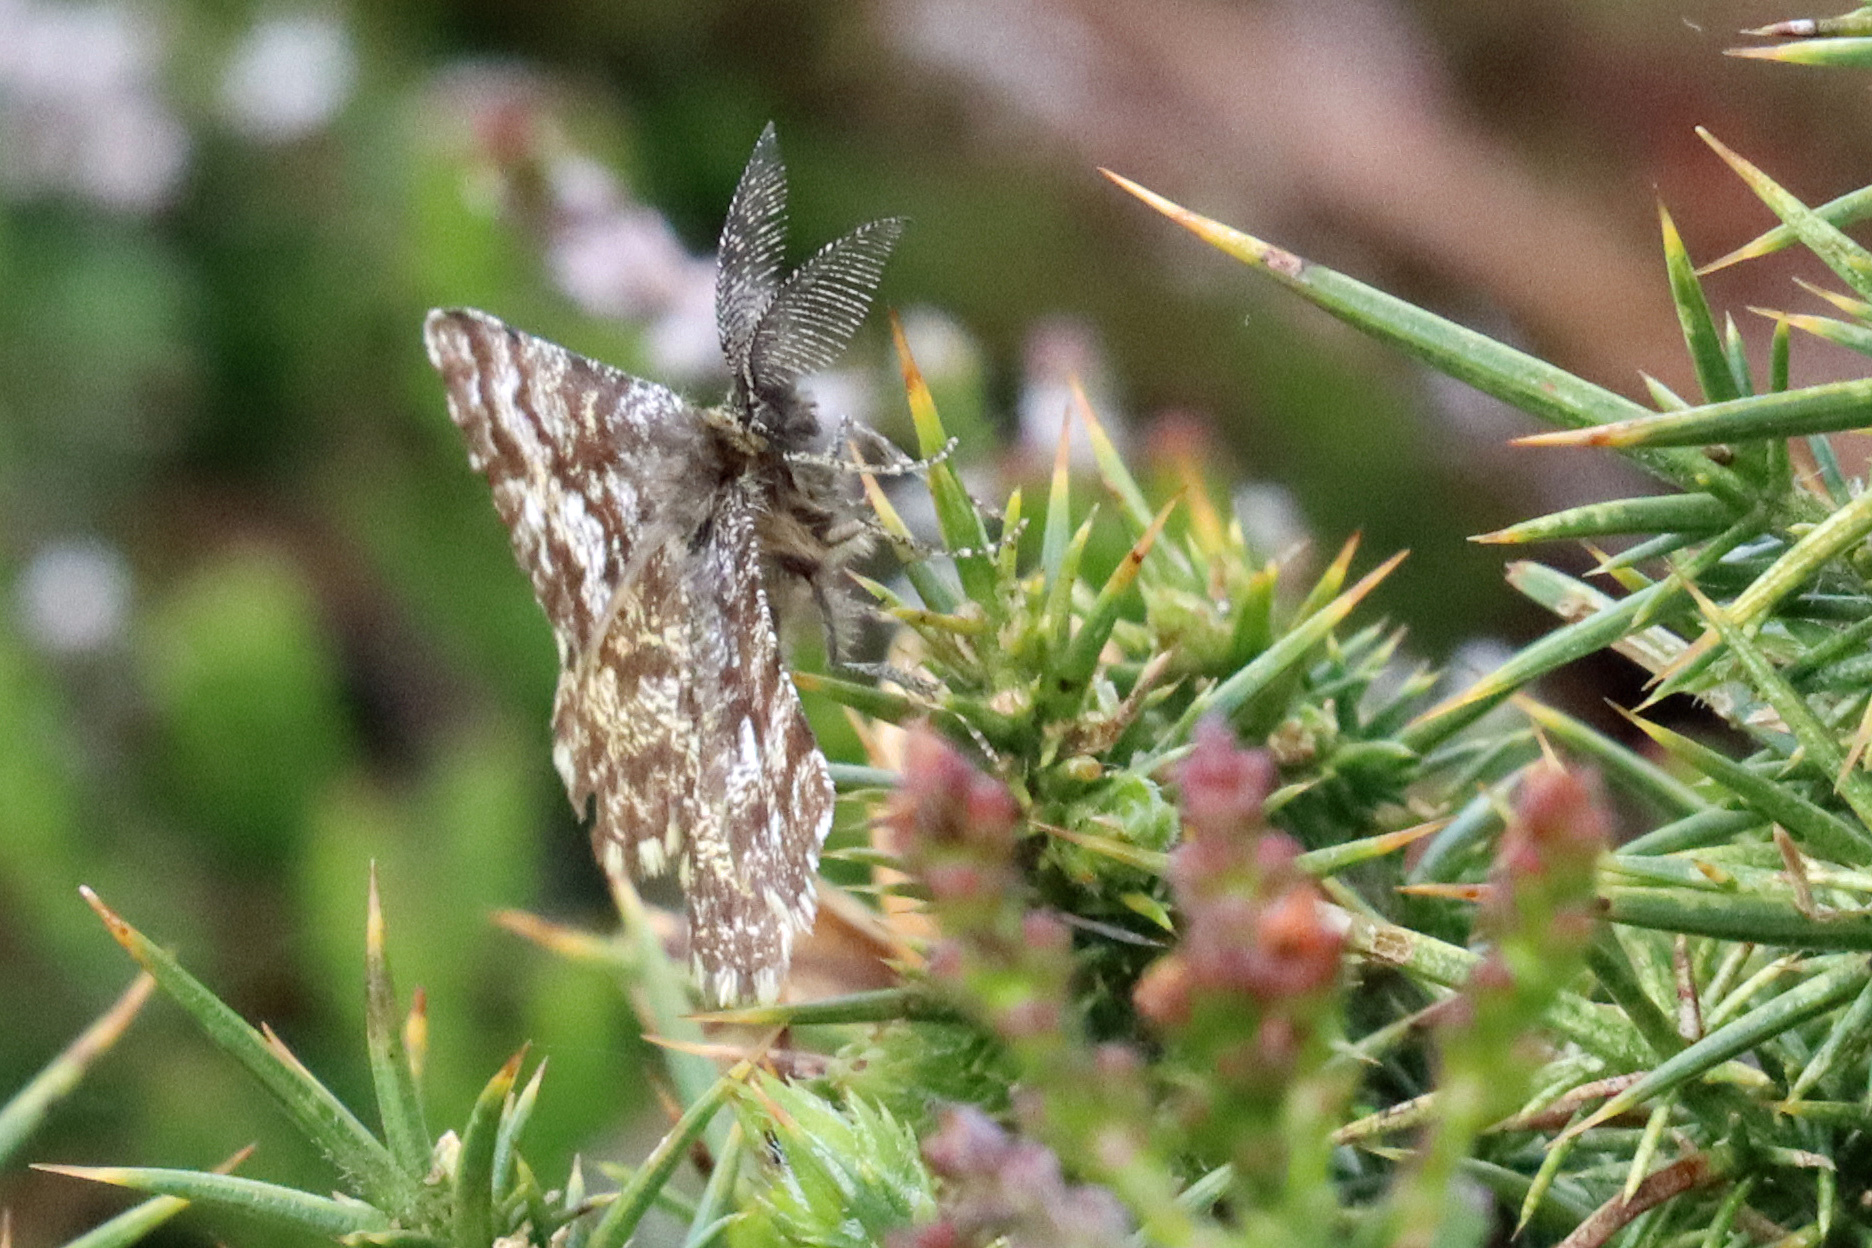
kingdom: Animalia
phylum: Arthropoda
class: Insecta
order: Lepidoptera
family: Geometridae
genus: Ematurga
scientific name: Ematurga atomaria
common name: Common heath
